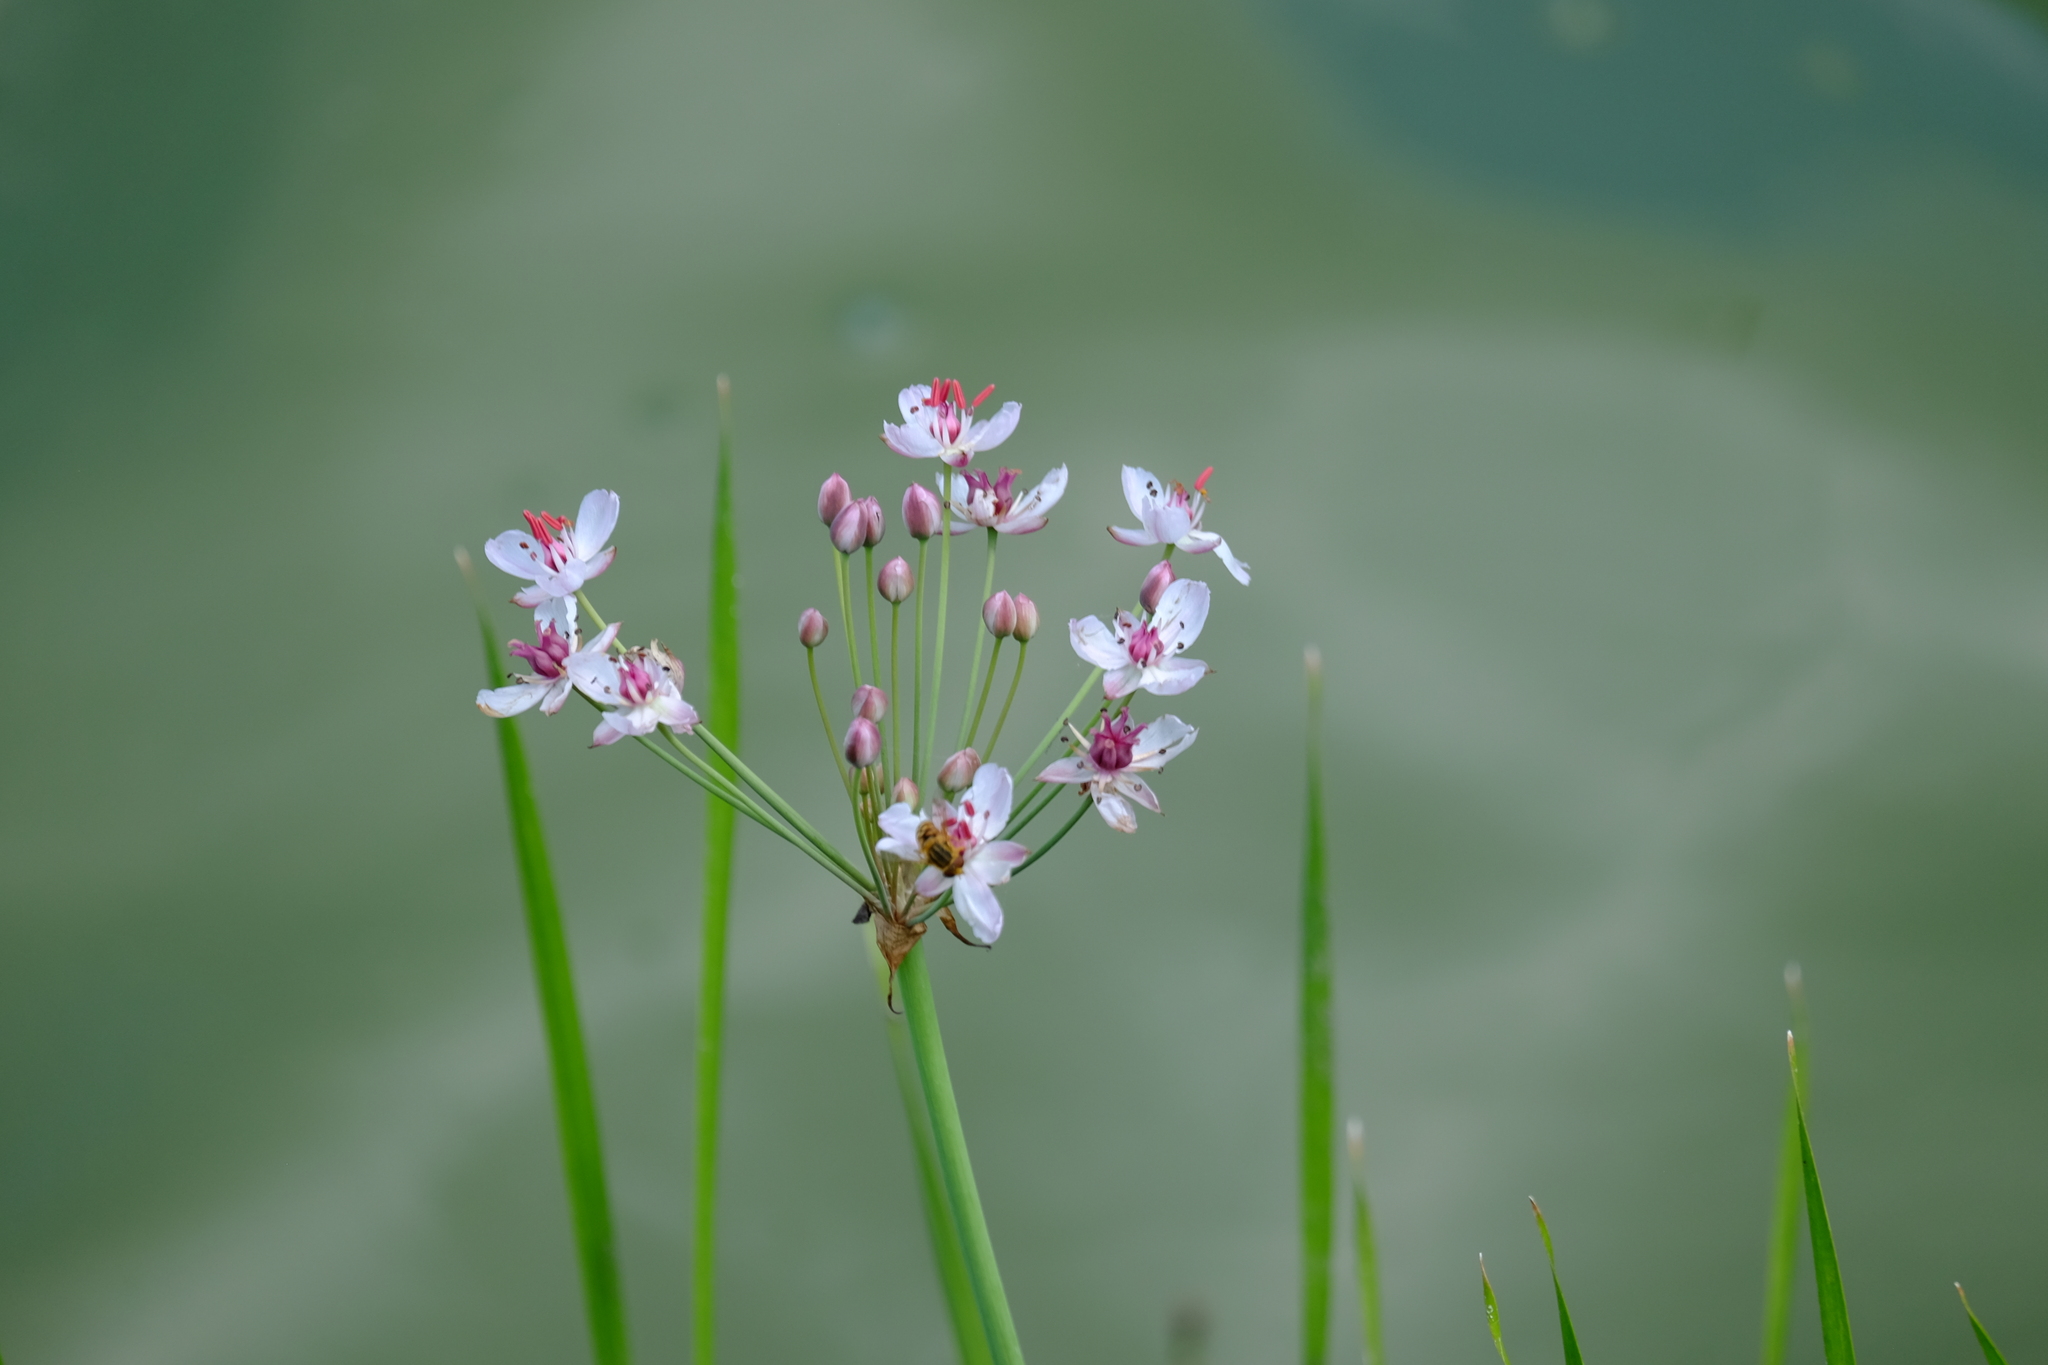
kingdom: Plantae
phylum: Tracheophyta
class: Liliopsida
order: Alismatales
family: Butomaceae
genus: Butomus
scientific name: Butomus umbellatus
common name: Flowering-rush
